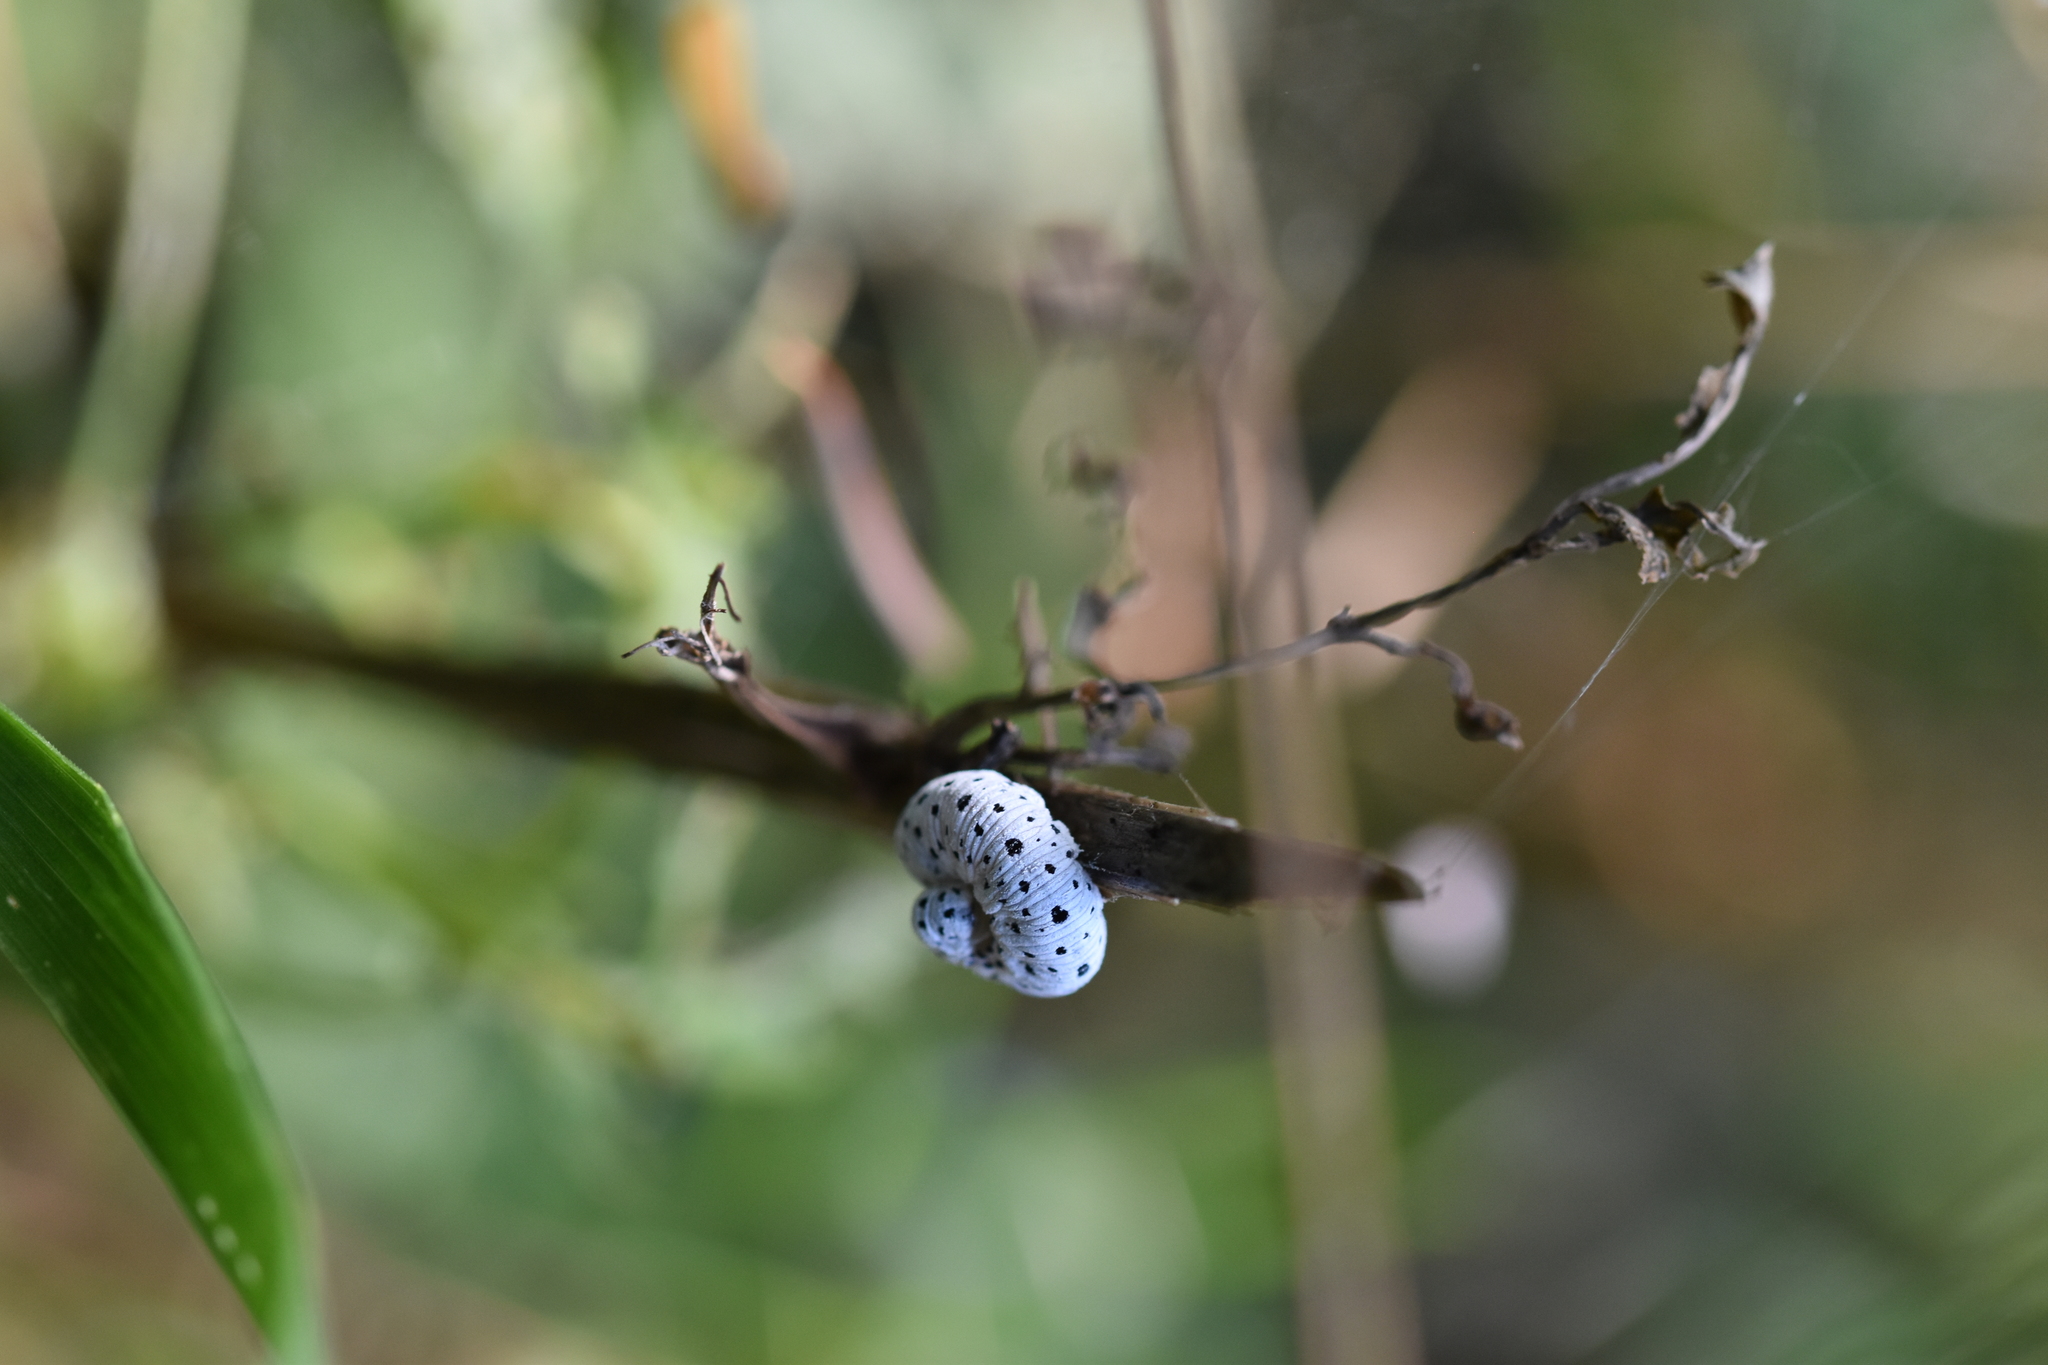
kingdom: Animalia
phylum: Arthropoda
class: Insecta
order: Hymenoptera
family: Tenthredinidae
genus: Tenthredo
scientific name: Tenthredo scrophulariae
